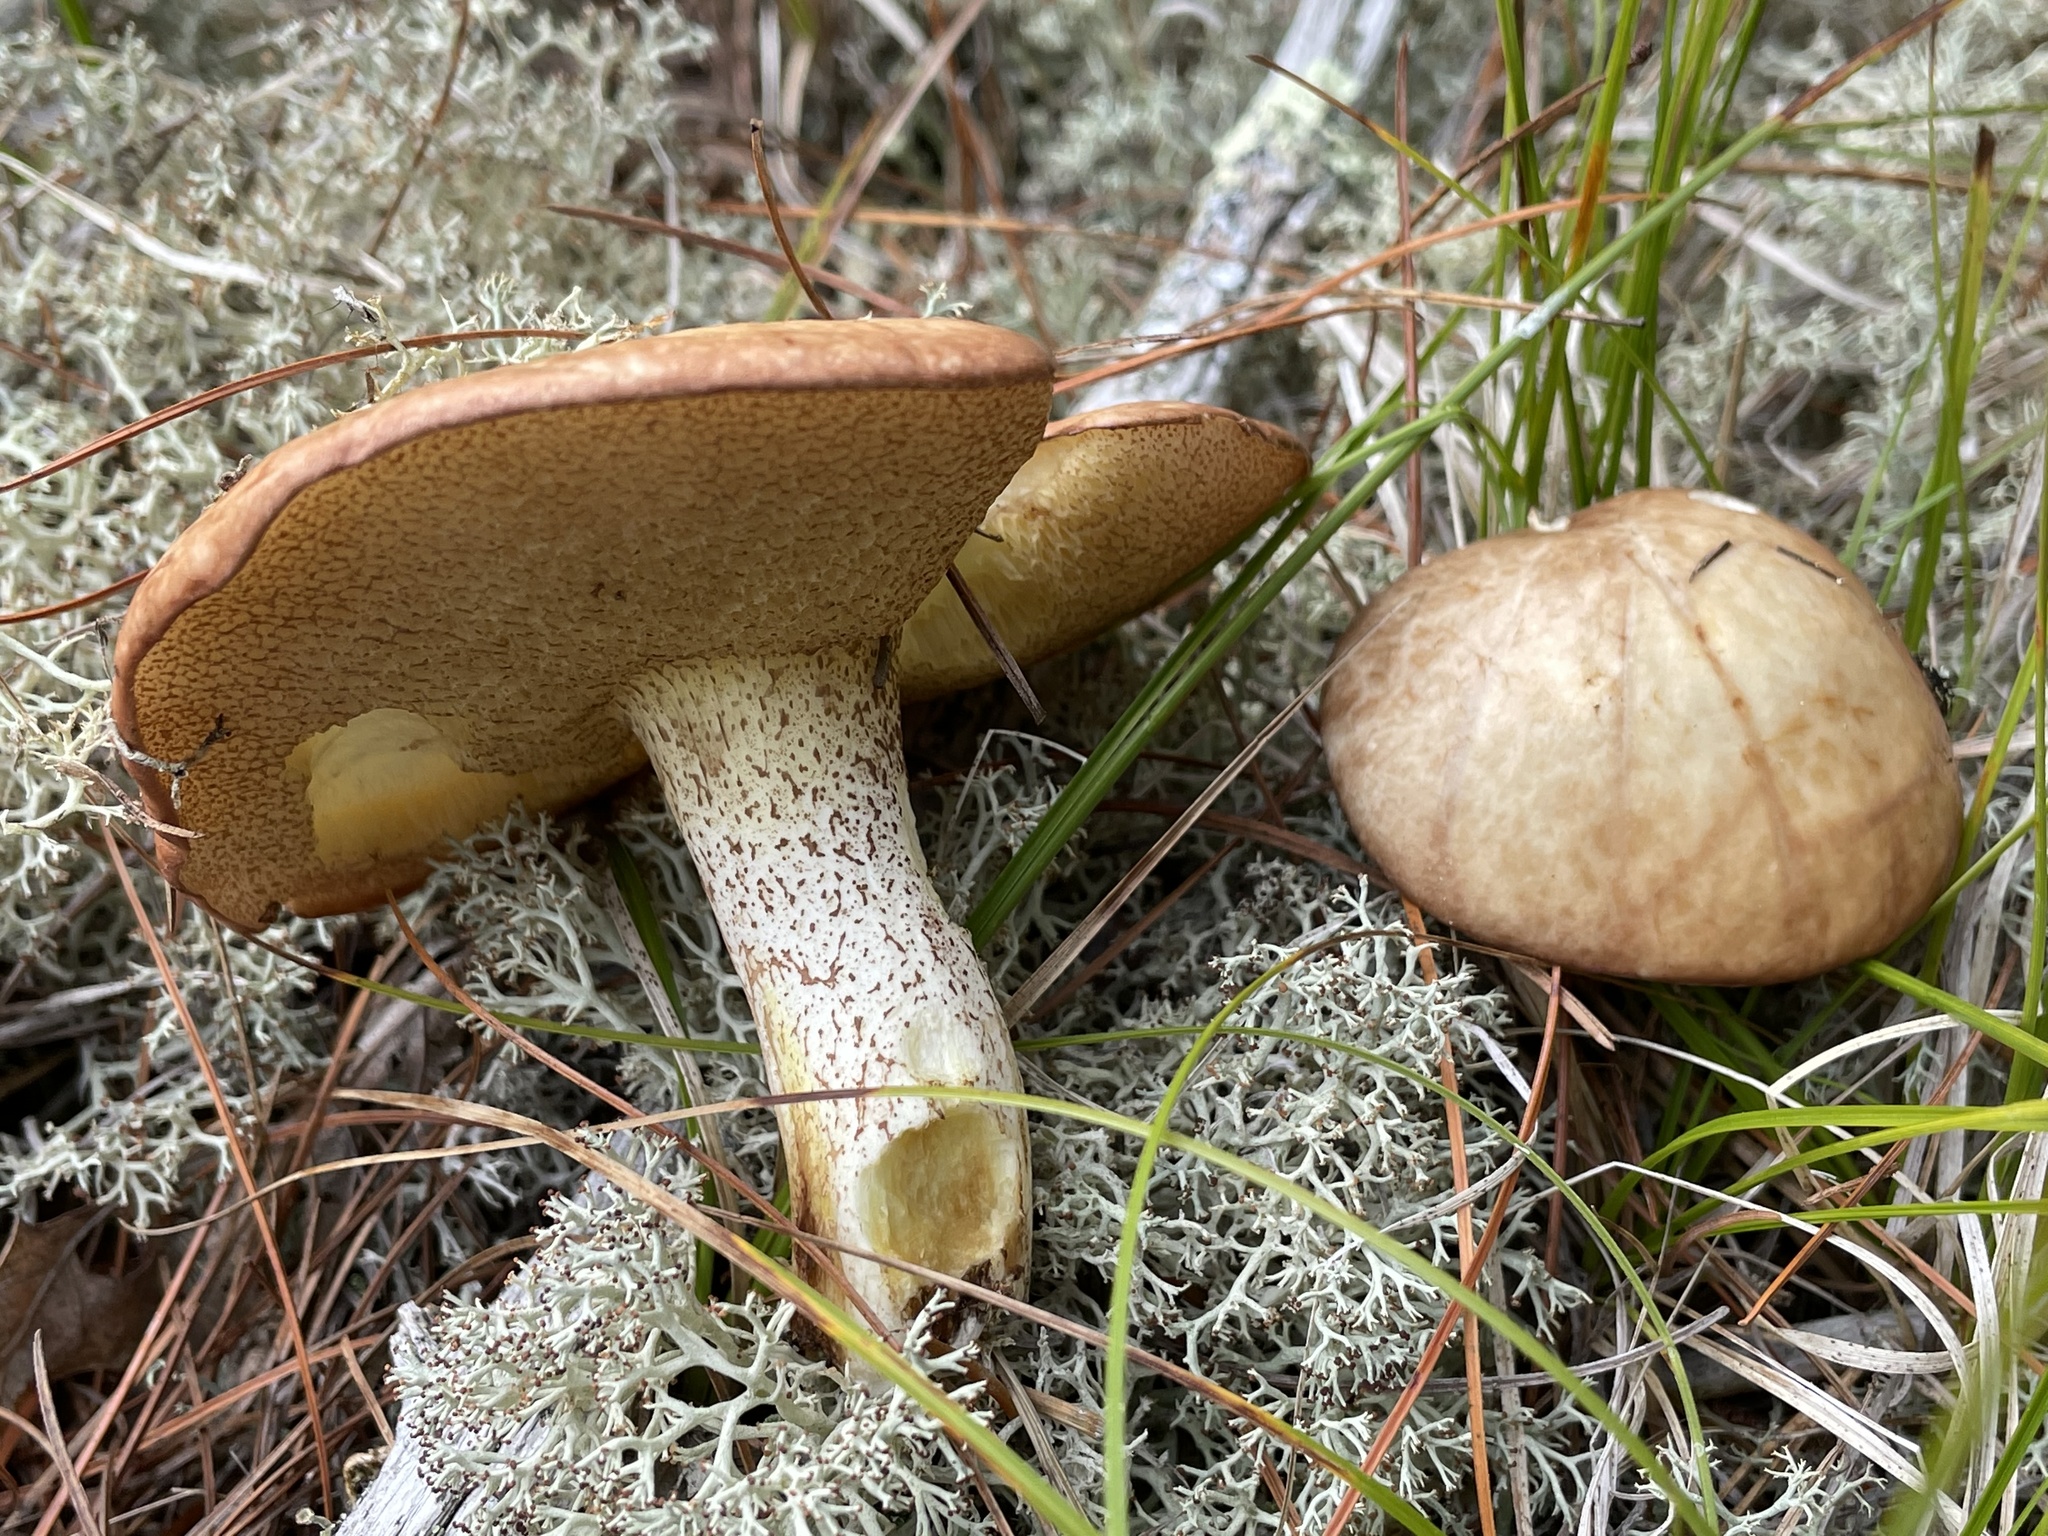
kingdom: Fungi
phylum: Basidiomycota
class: Agaricomycetes
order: Boletales
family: Suillaceae
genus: Fuscoboletinus
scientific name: Fuscoboletinus weaverae
